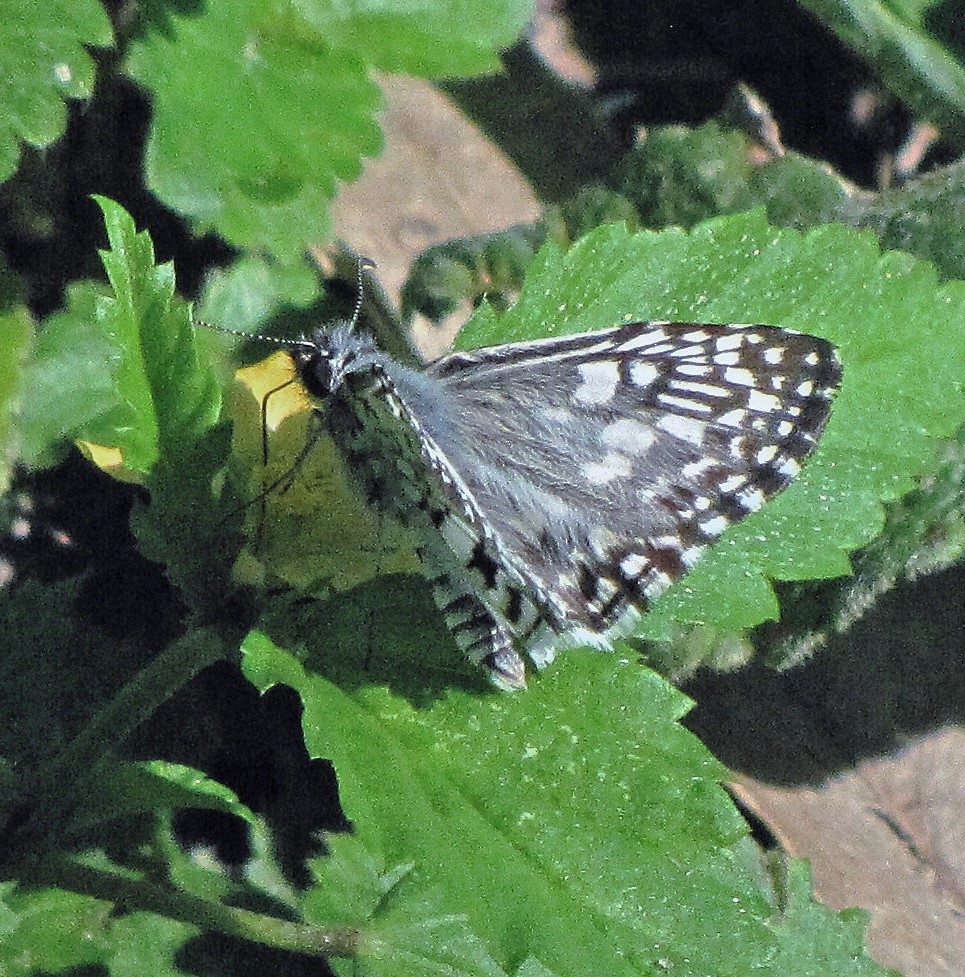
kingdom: Animalia
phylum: Arthropoda
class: Insecta
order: Lepidoptera
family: Hesperiidae
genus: Pyrgus
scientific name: Pyrgus oileus
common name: Tropical checkered-skipper
